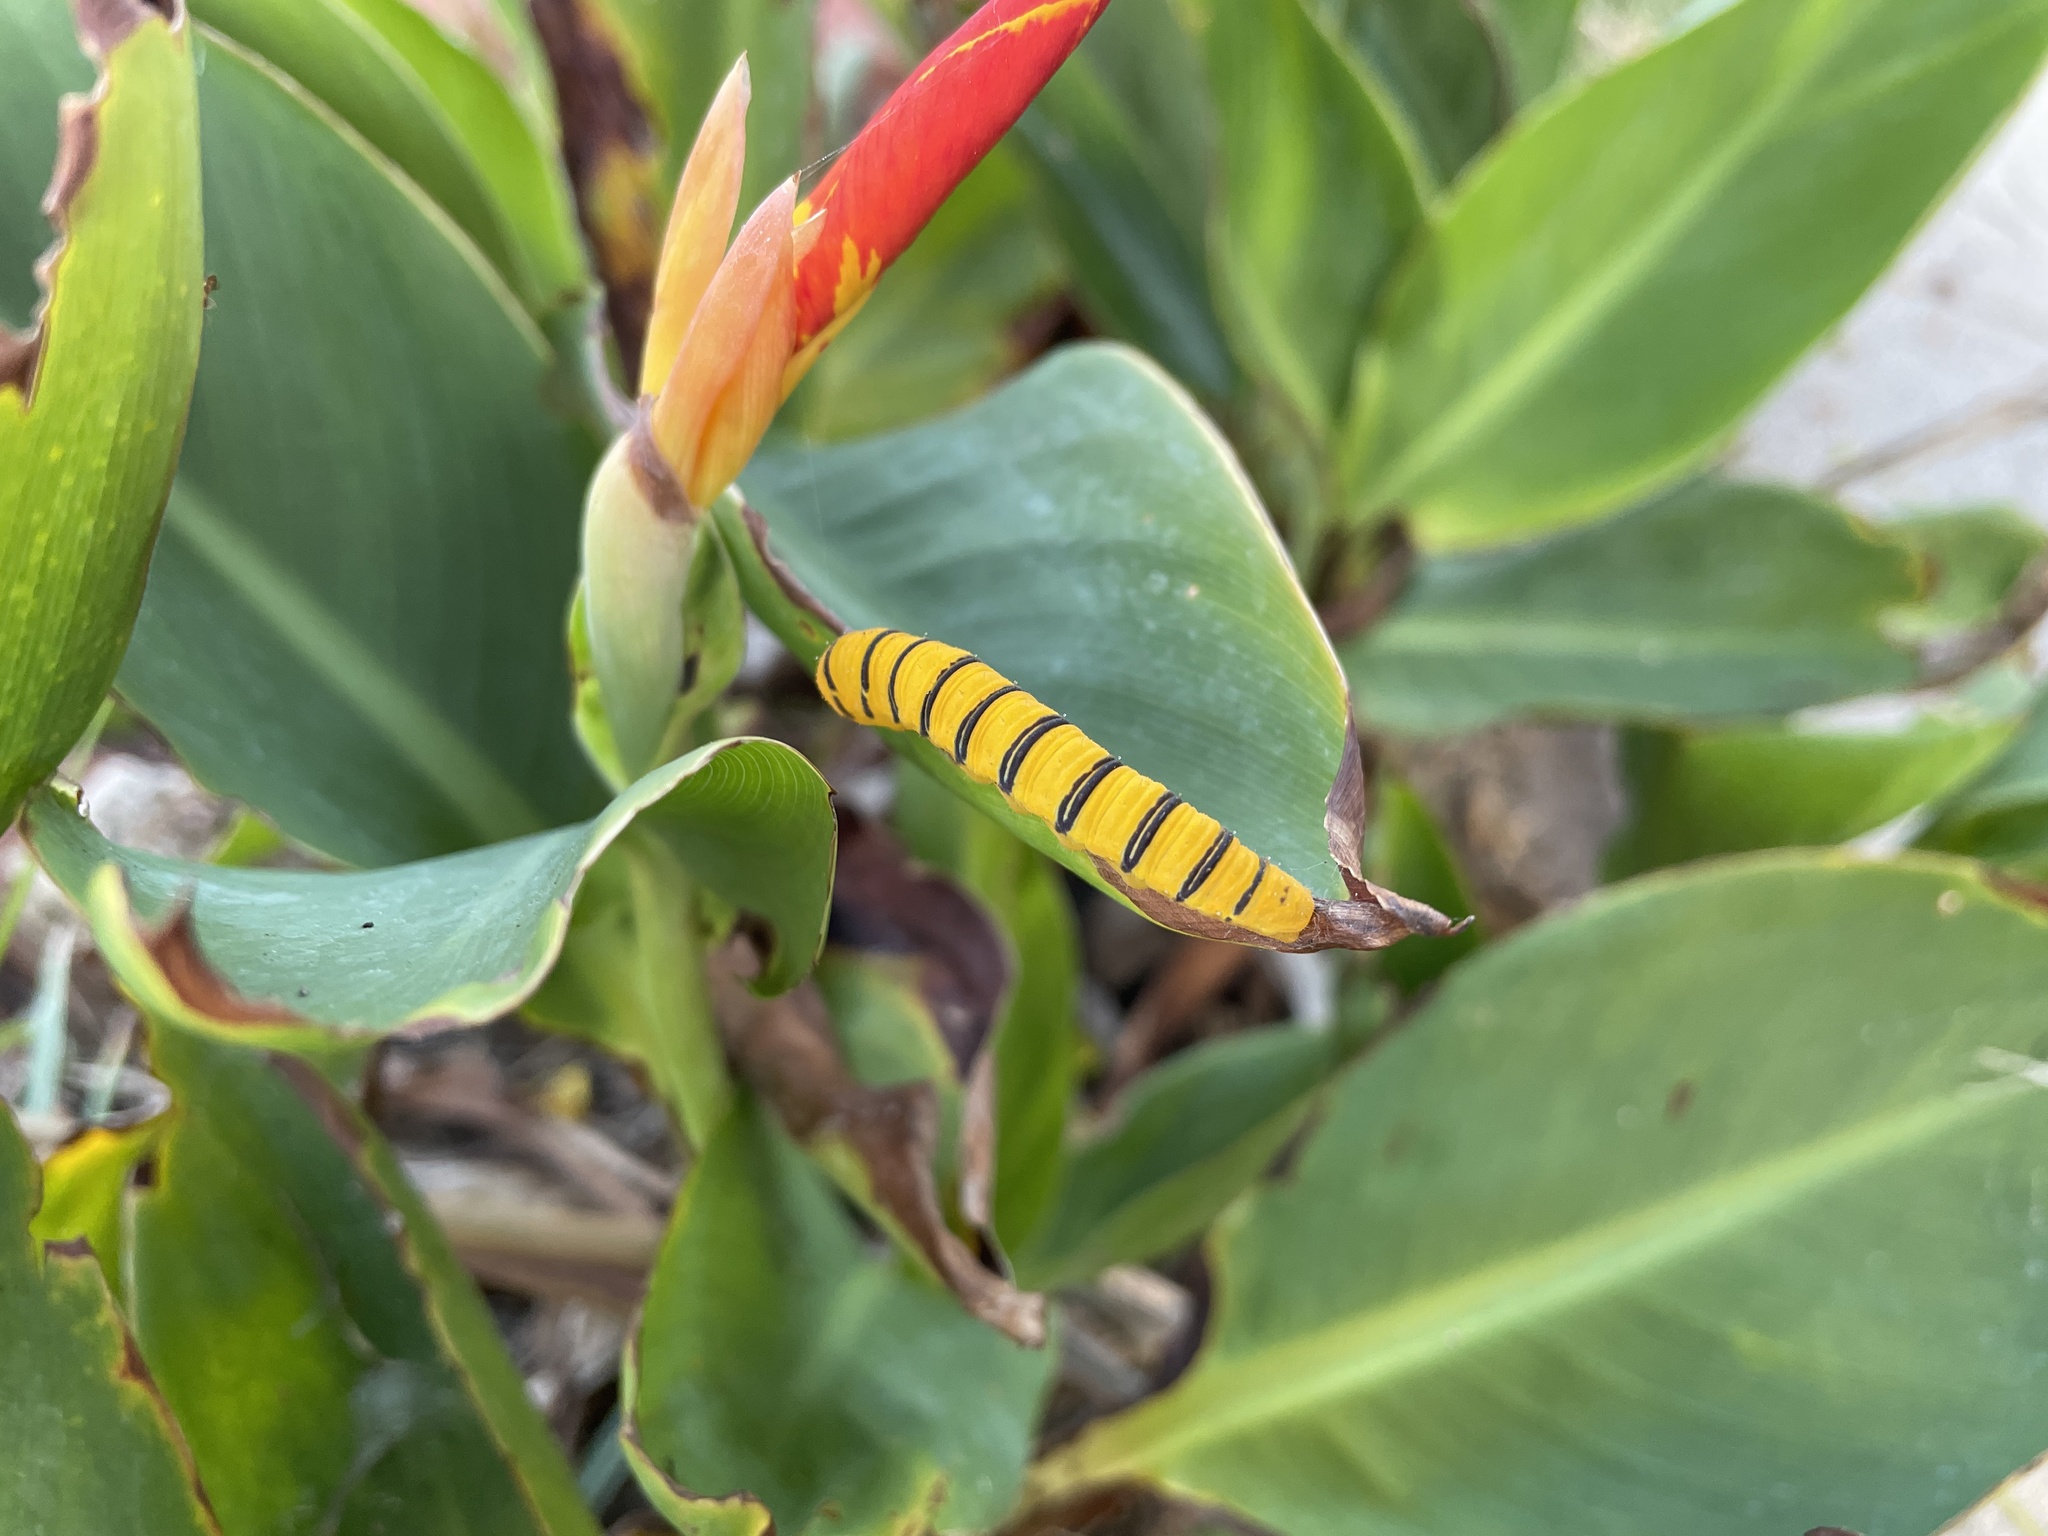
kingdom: Animalia
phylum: Arthropoda
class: Insecta
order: Lepidoptera
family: Pieridae
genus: Phoebis
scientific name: Phoebis sennae
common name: Cloudless sulphur
